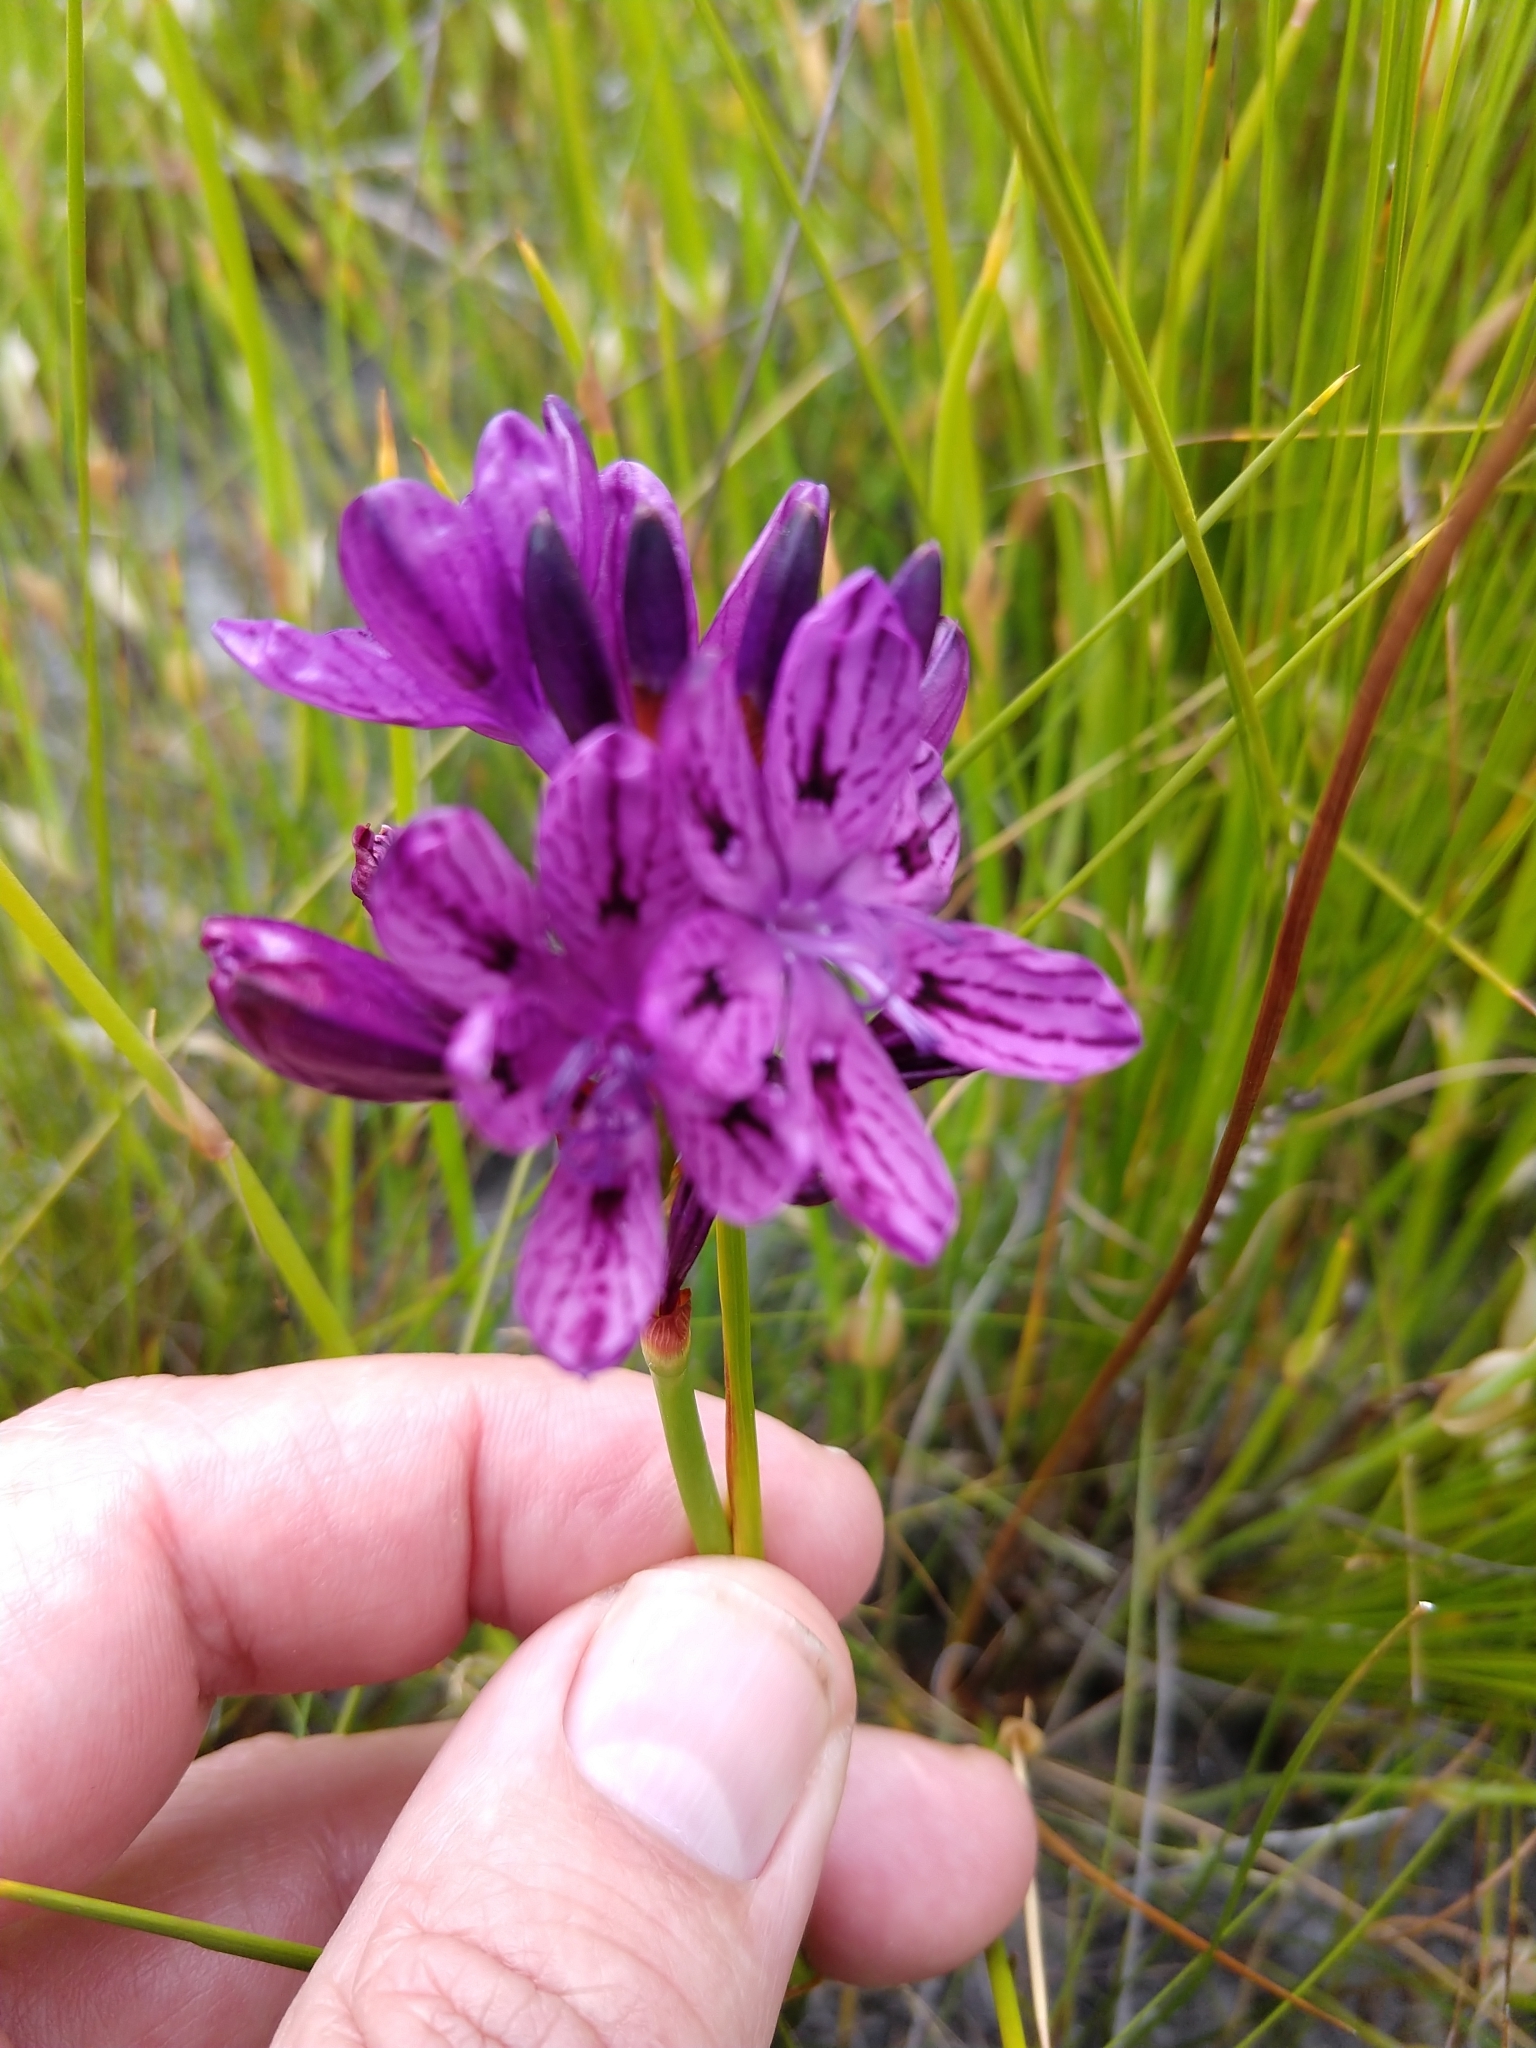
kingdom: Plantae
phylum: Tracheophyta
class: Liliopsida
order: Asparagales
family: Iridaceae
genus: Thereianthus
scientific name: Thereianthus bracteolatus
